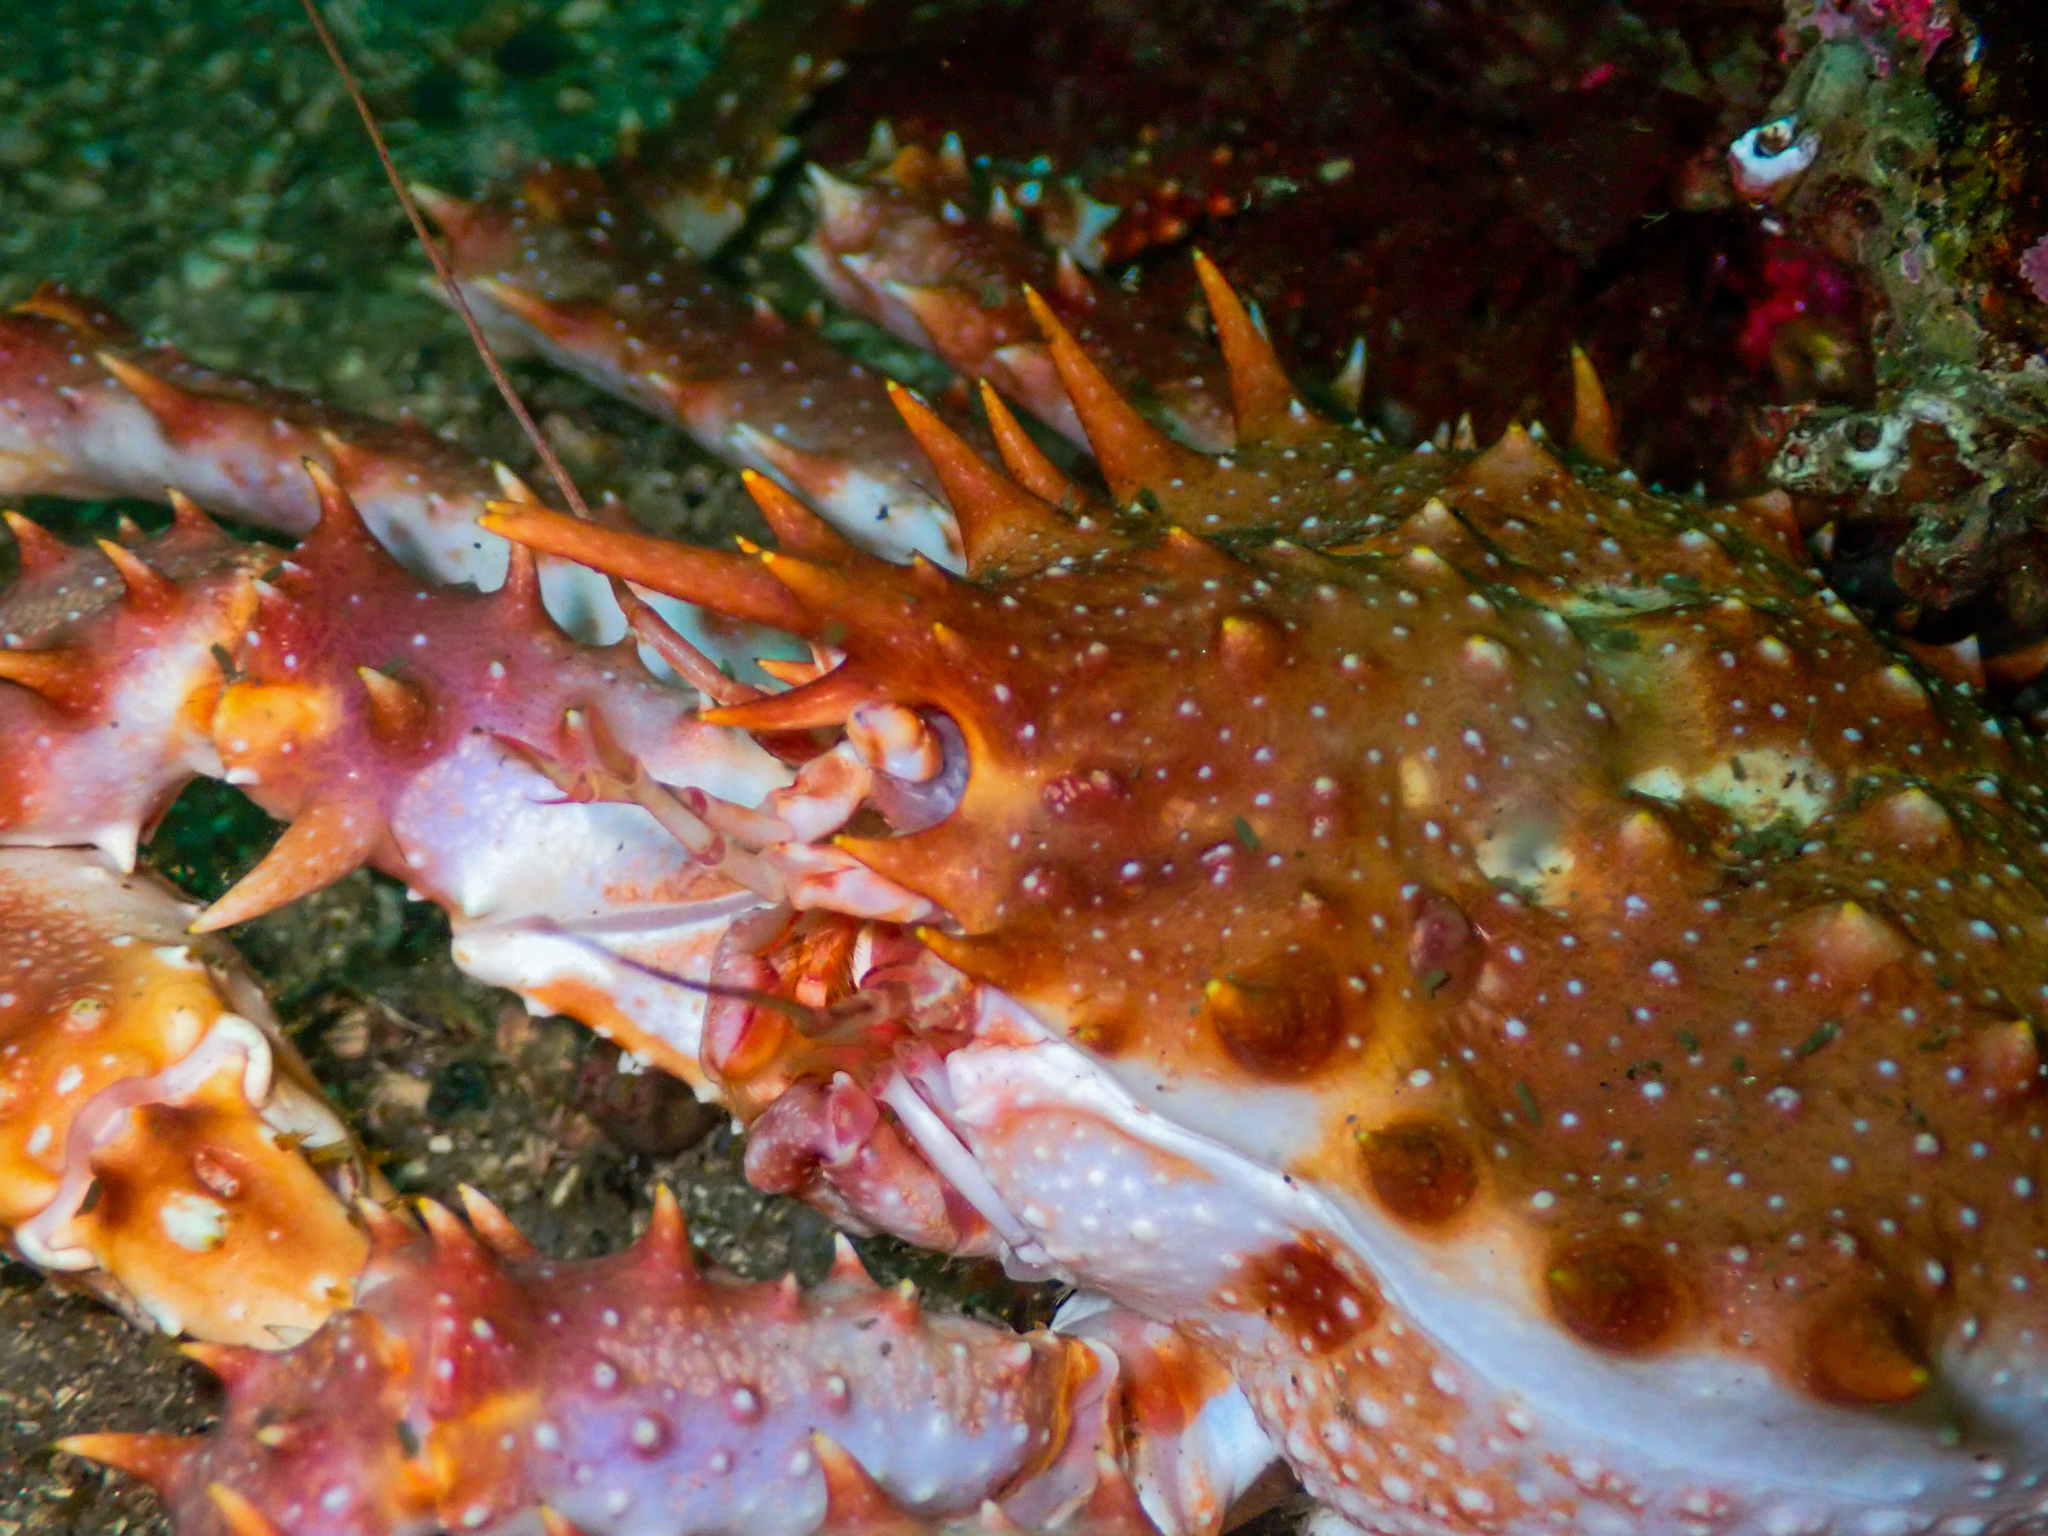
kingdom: Animalia
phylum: Arthropoda
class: Malacostraca
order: Decapoda
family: Lithodidae
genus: Lithodes
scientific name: Lithodes maja
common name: Northern stone crab
